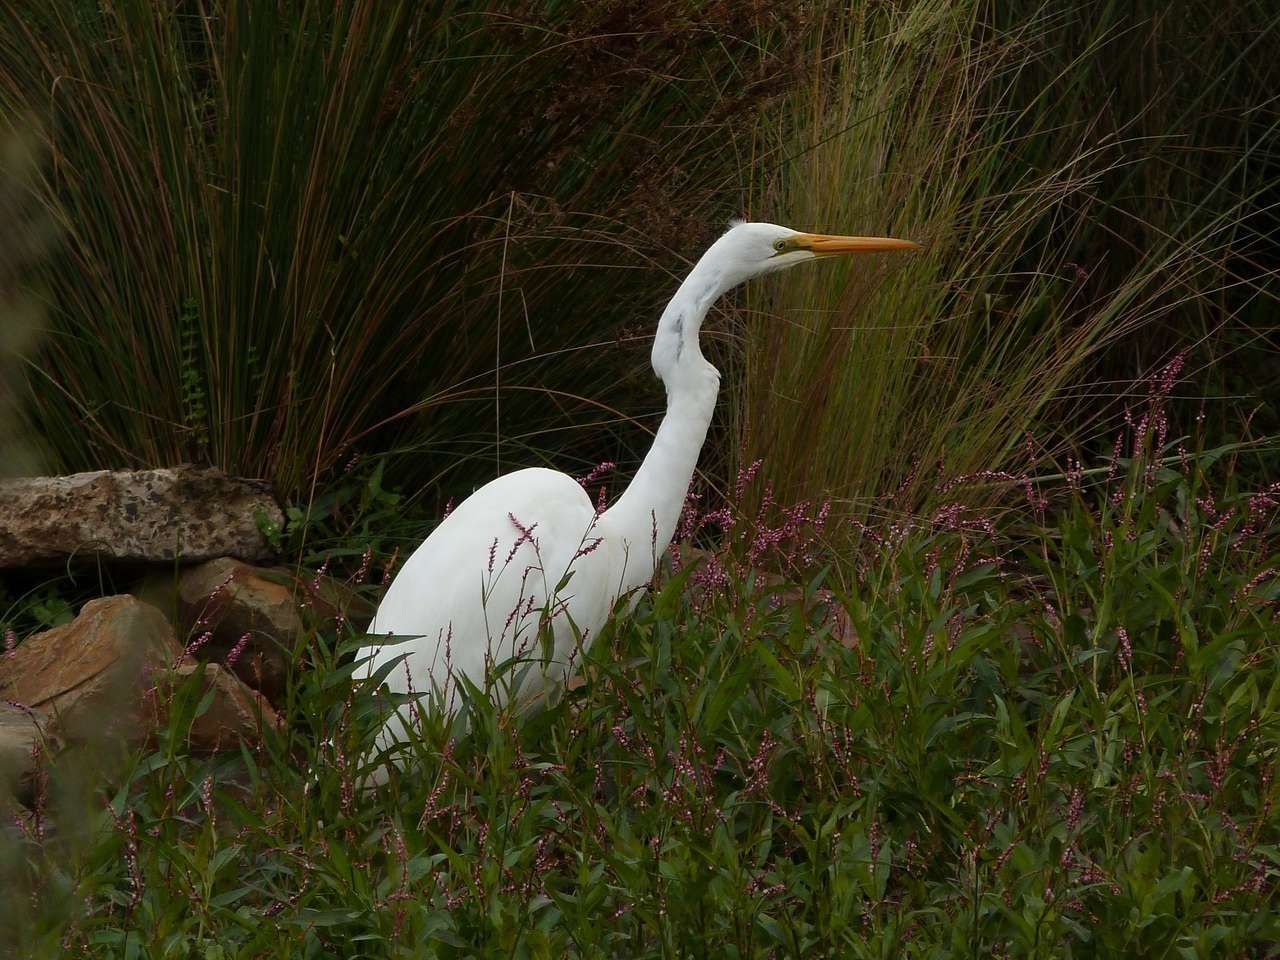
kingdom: Animalia
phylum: Chordata
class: Aves
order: Pelecaniformes
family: Ardeidae
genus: Ardea
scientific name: Ardea modesta
